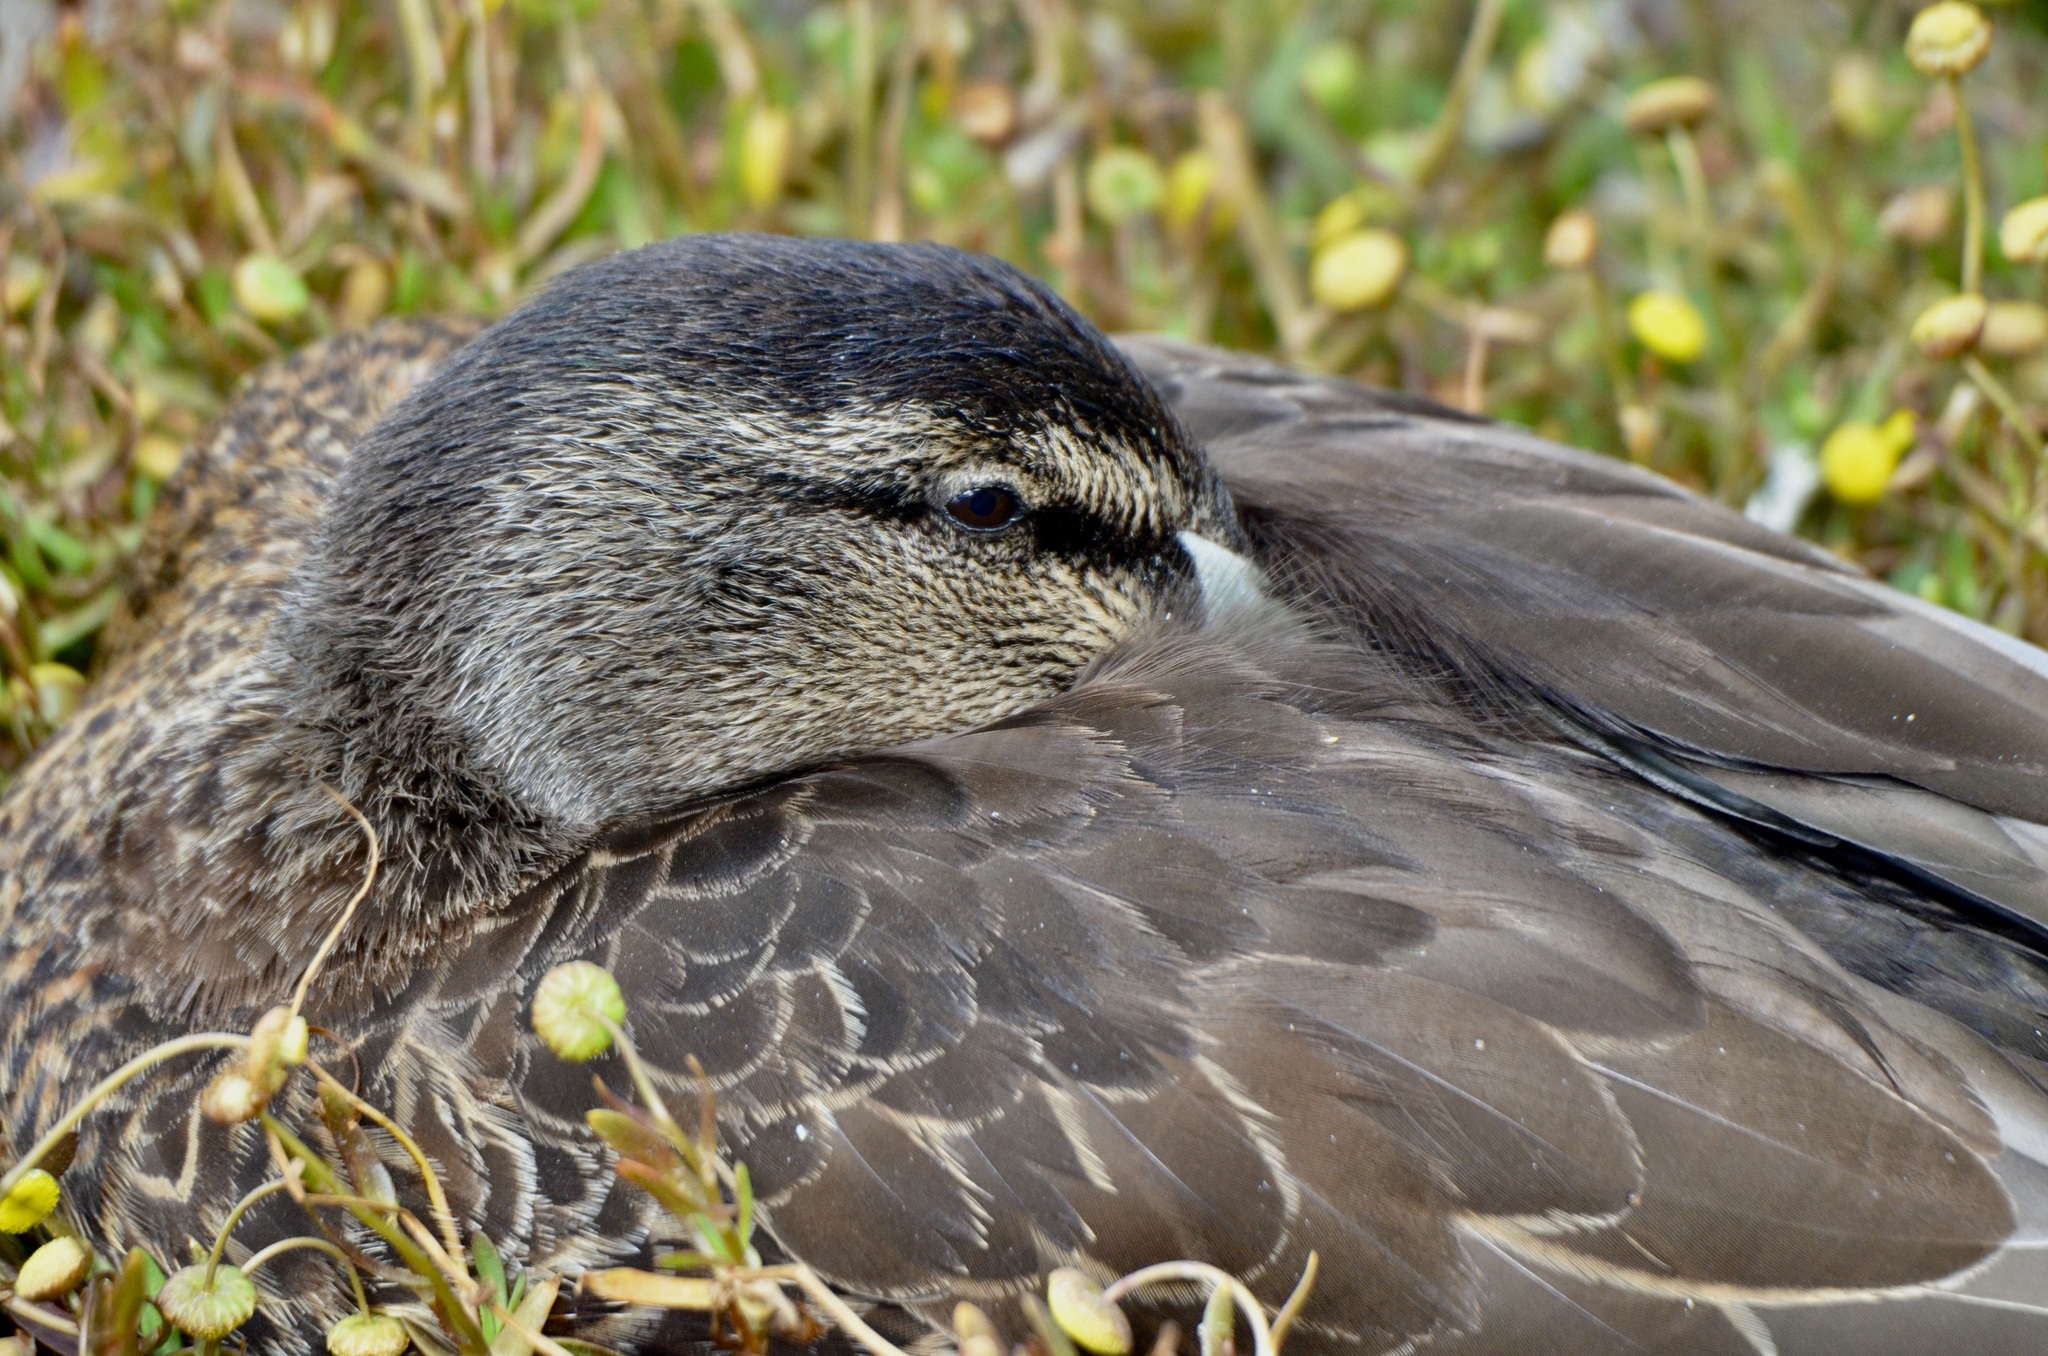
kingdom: Animalia
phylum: Chordata
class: Aves
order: Anseriformes
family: Anatidae
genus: Anas
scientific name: Anas
